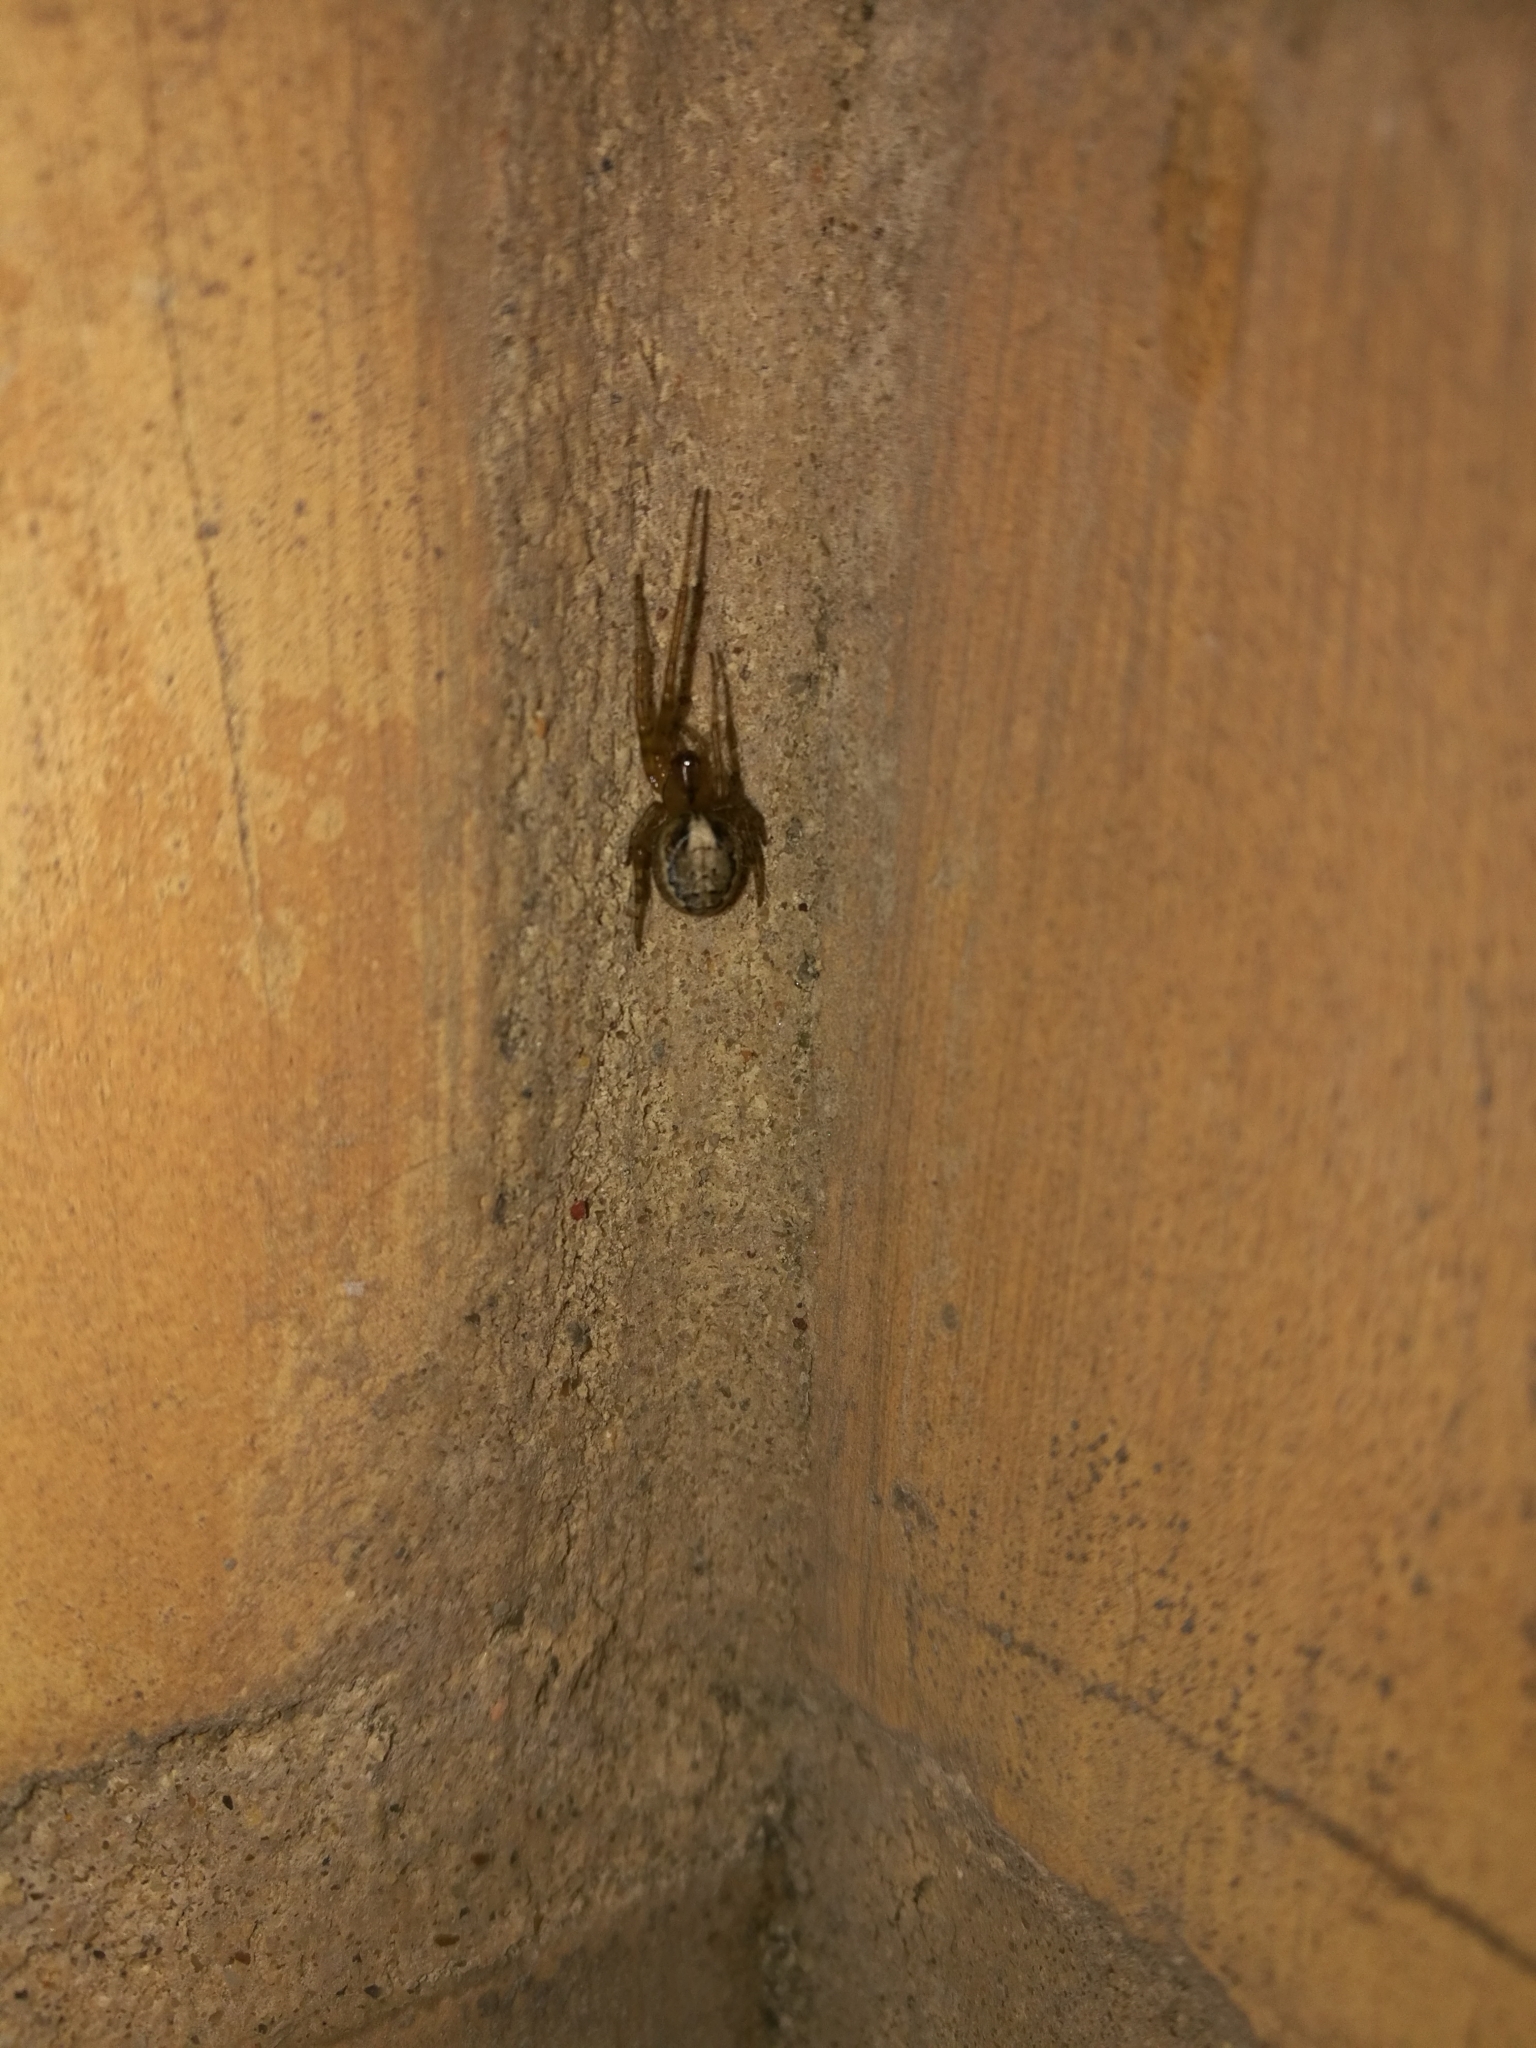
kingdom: Animalia
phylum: Arthropoda
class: Arachnida
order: Araneae
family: Araneidae
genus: Zygiella
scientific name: Zygiella x-notata
